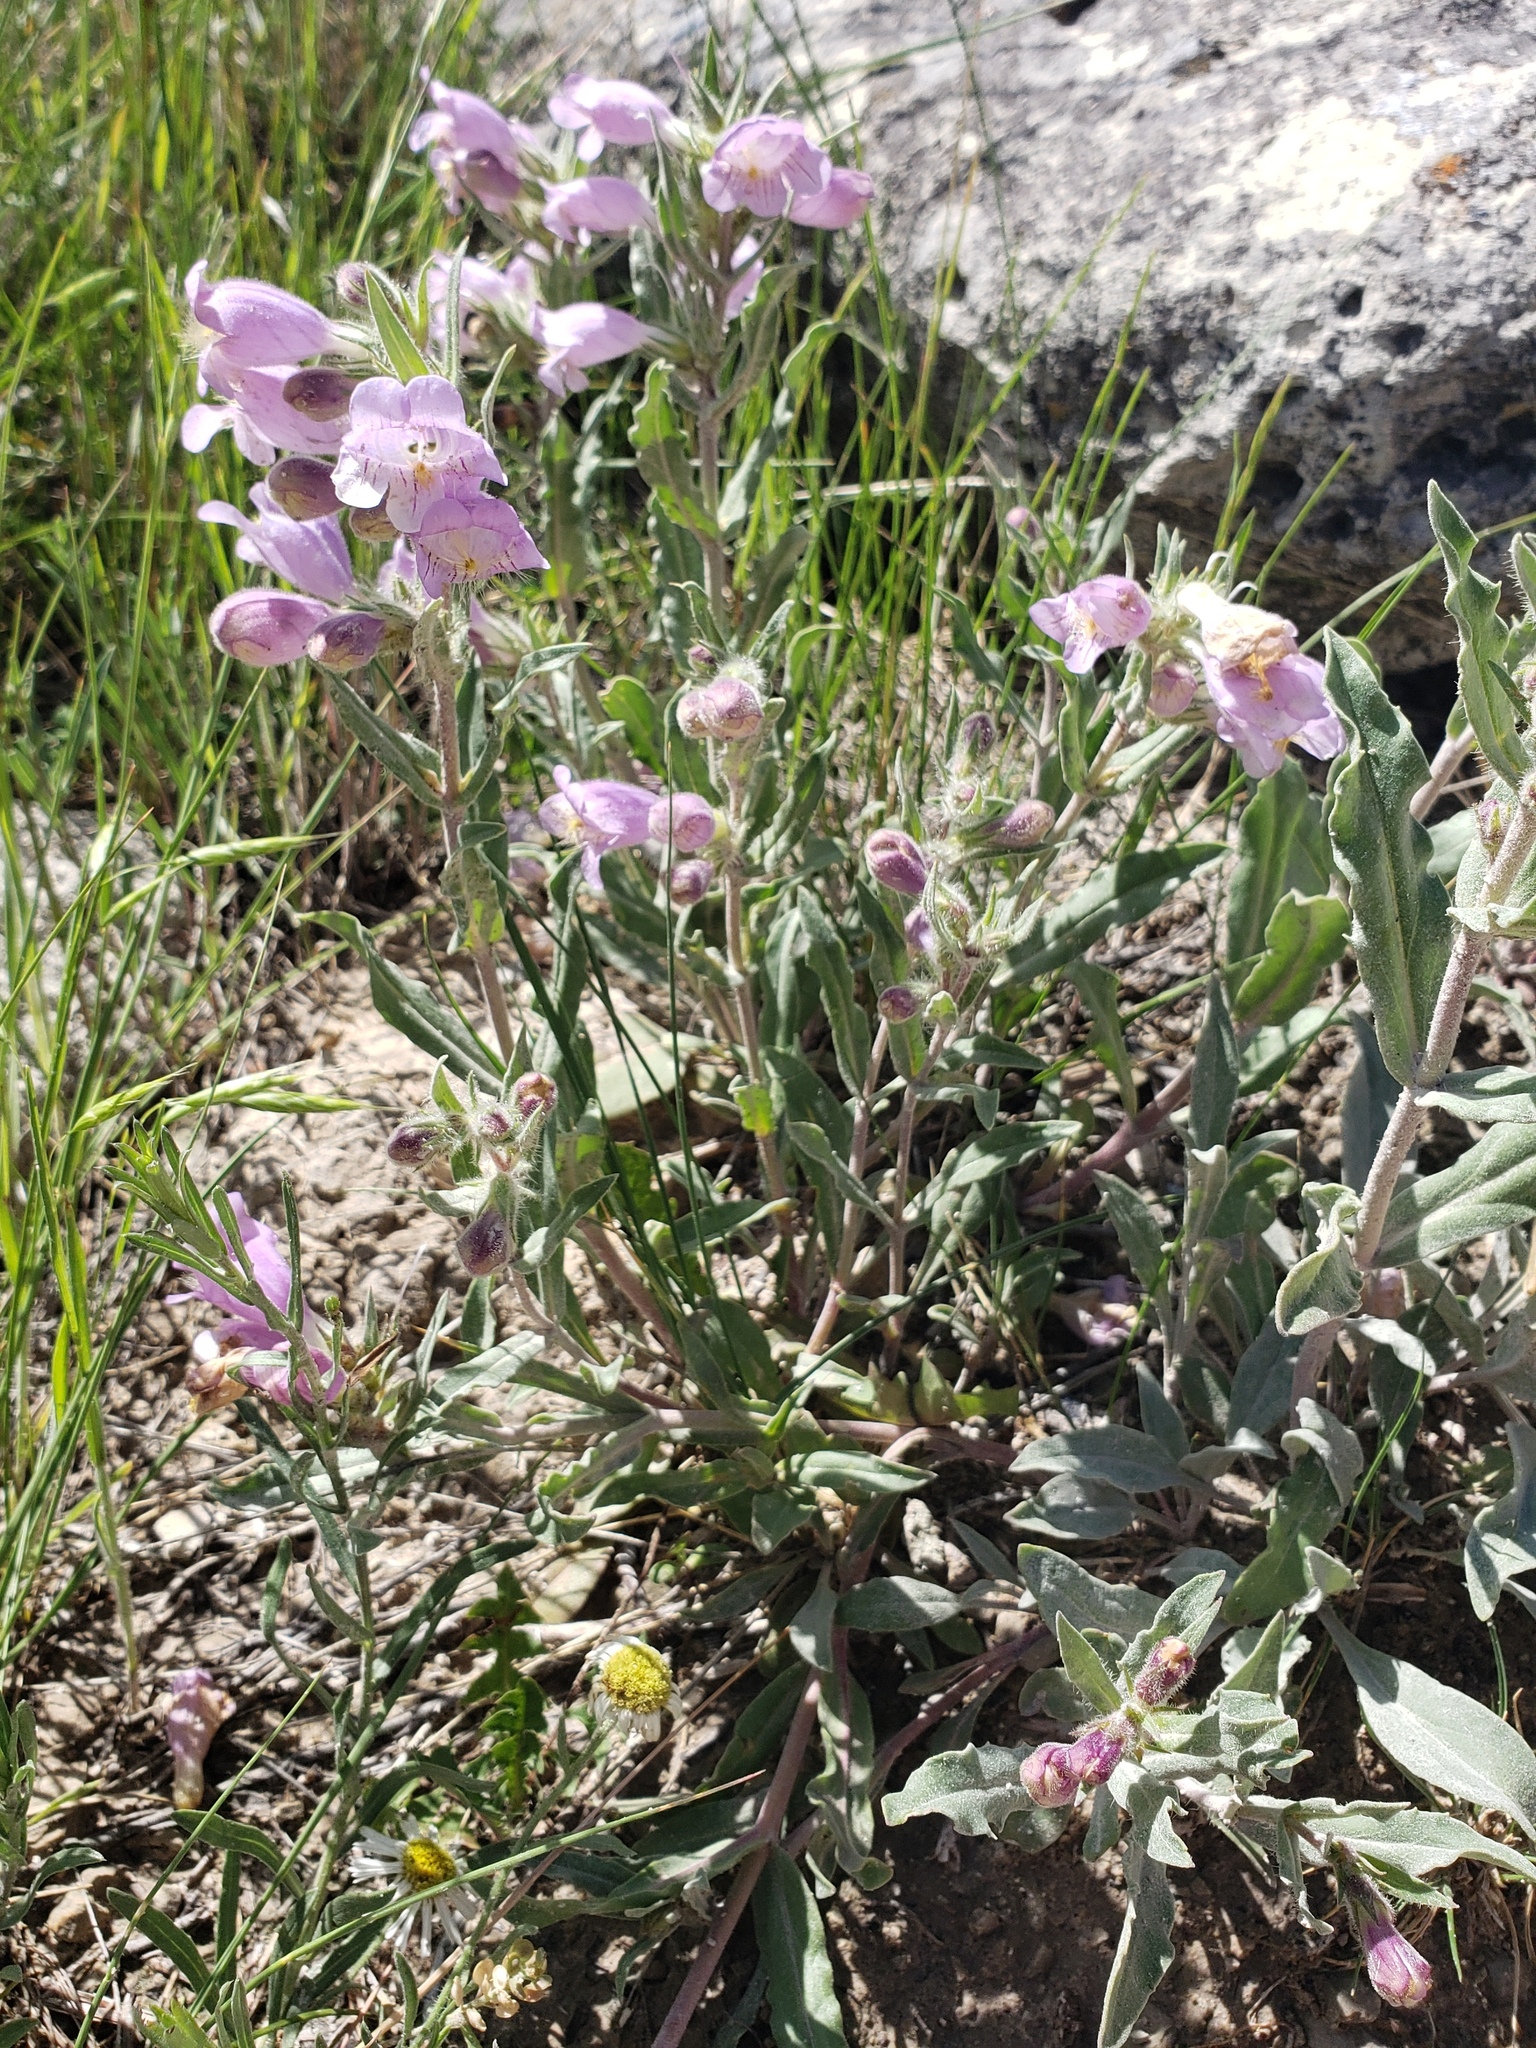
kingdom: Plantae
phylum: Tracheophyta
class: Magnoliopsida
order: Lamiales
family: Plantaginaceae
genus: Penstemon
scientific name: Penstemon eriantherus
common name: Crested beardtongue
